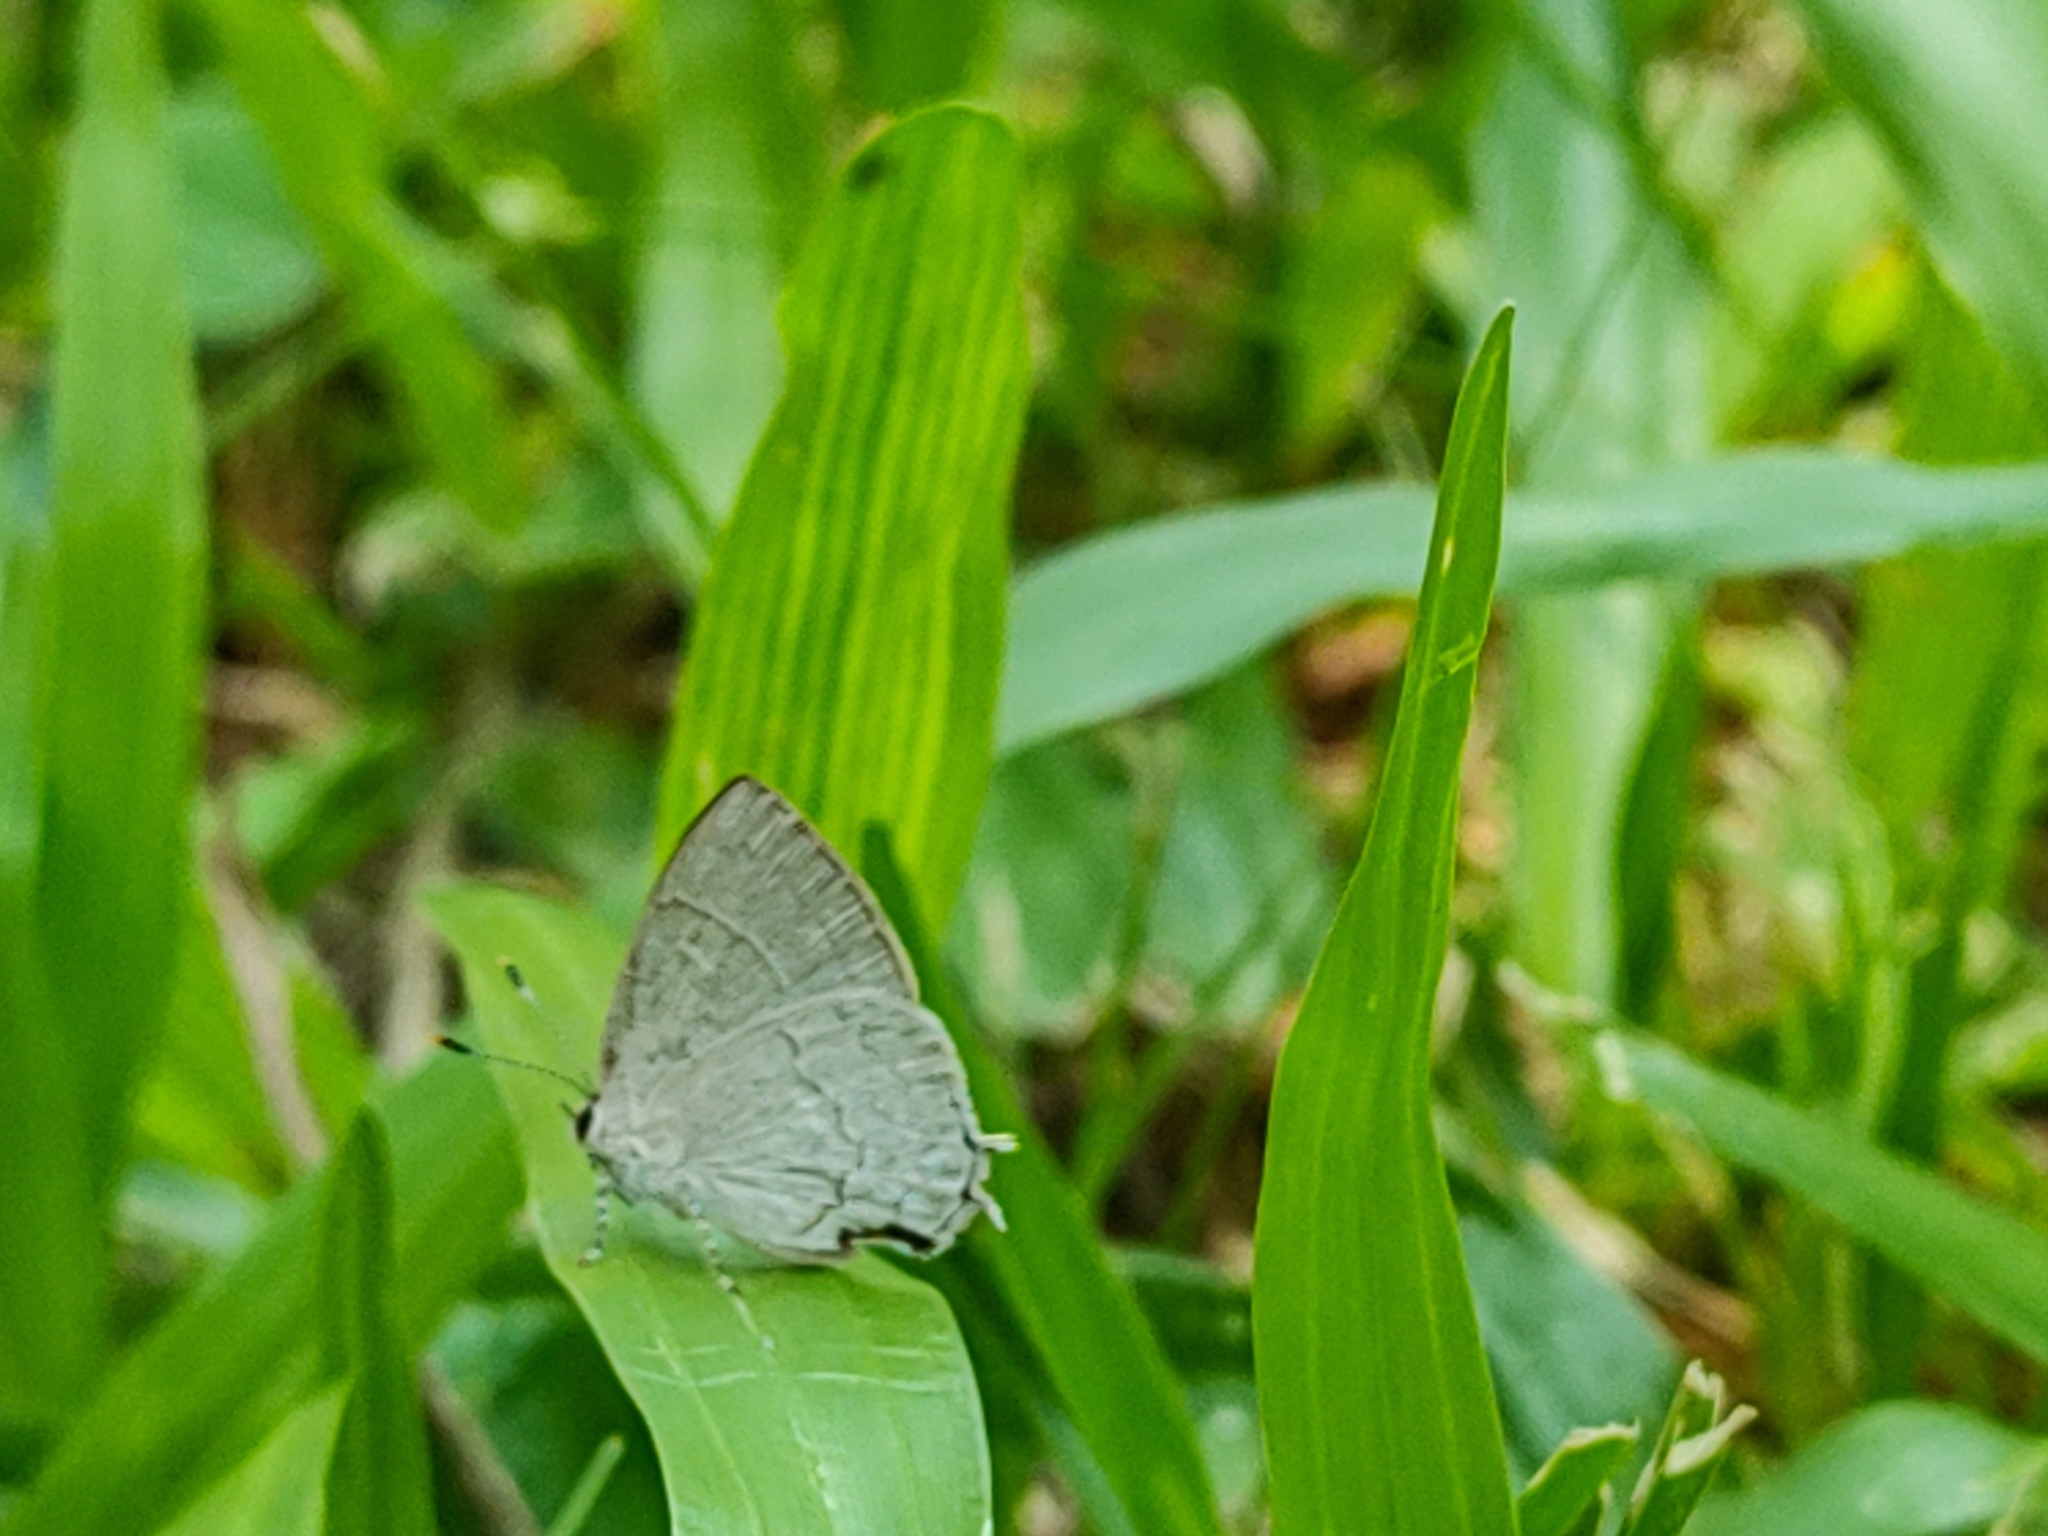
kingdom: Animalia
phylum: Arthropoda
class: Insecta
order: Lepidoptera
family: Lycaenidae
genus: Symbiopsis
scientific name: Symbiopsis lenitas
